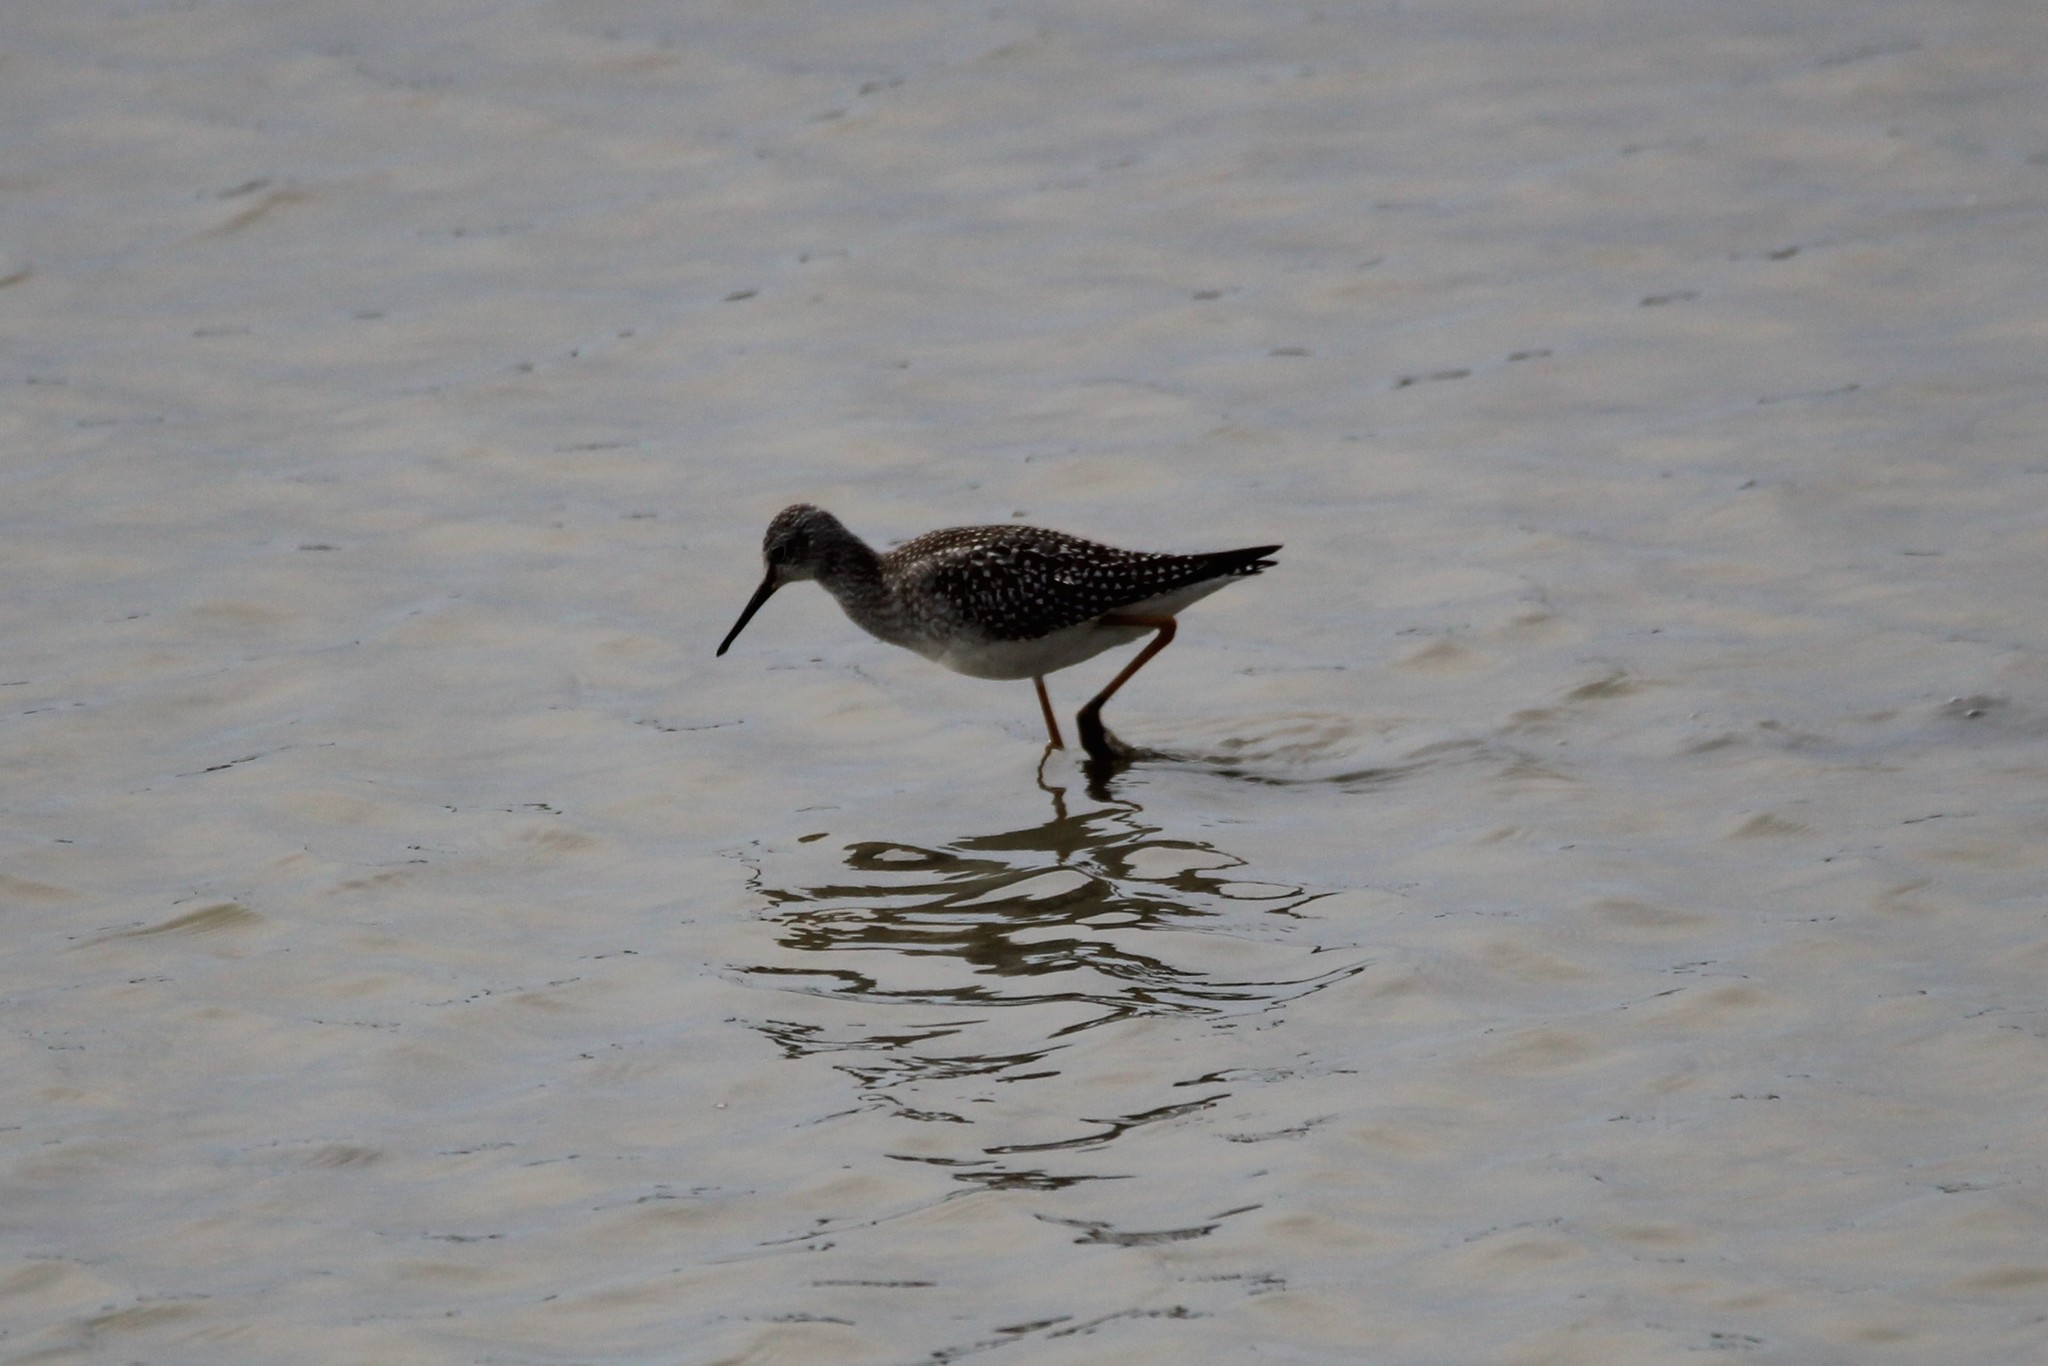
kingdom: Animalia
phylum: Chordata
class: Aves
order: Charadriiformes
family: Scolopacidae
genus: Tringa
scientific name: Tringa flavipes
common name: Lesser yellowlegs
